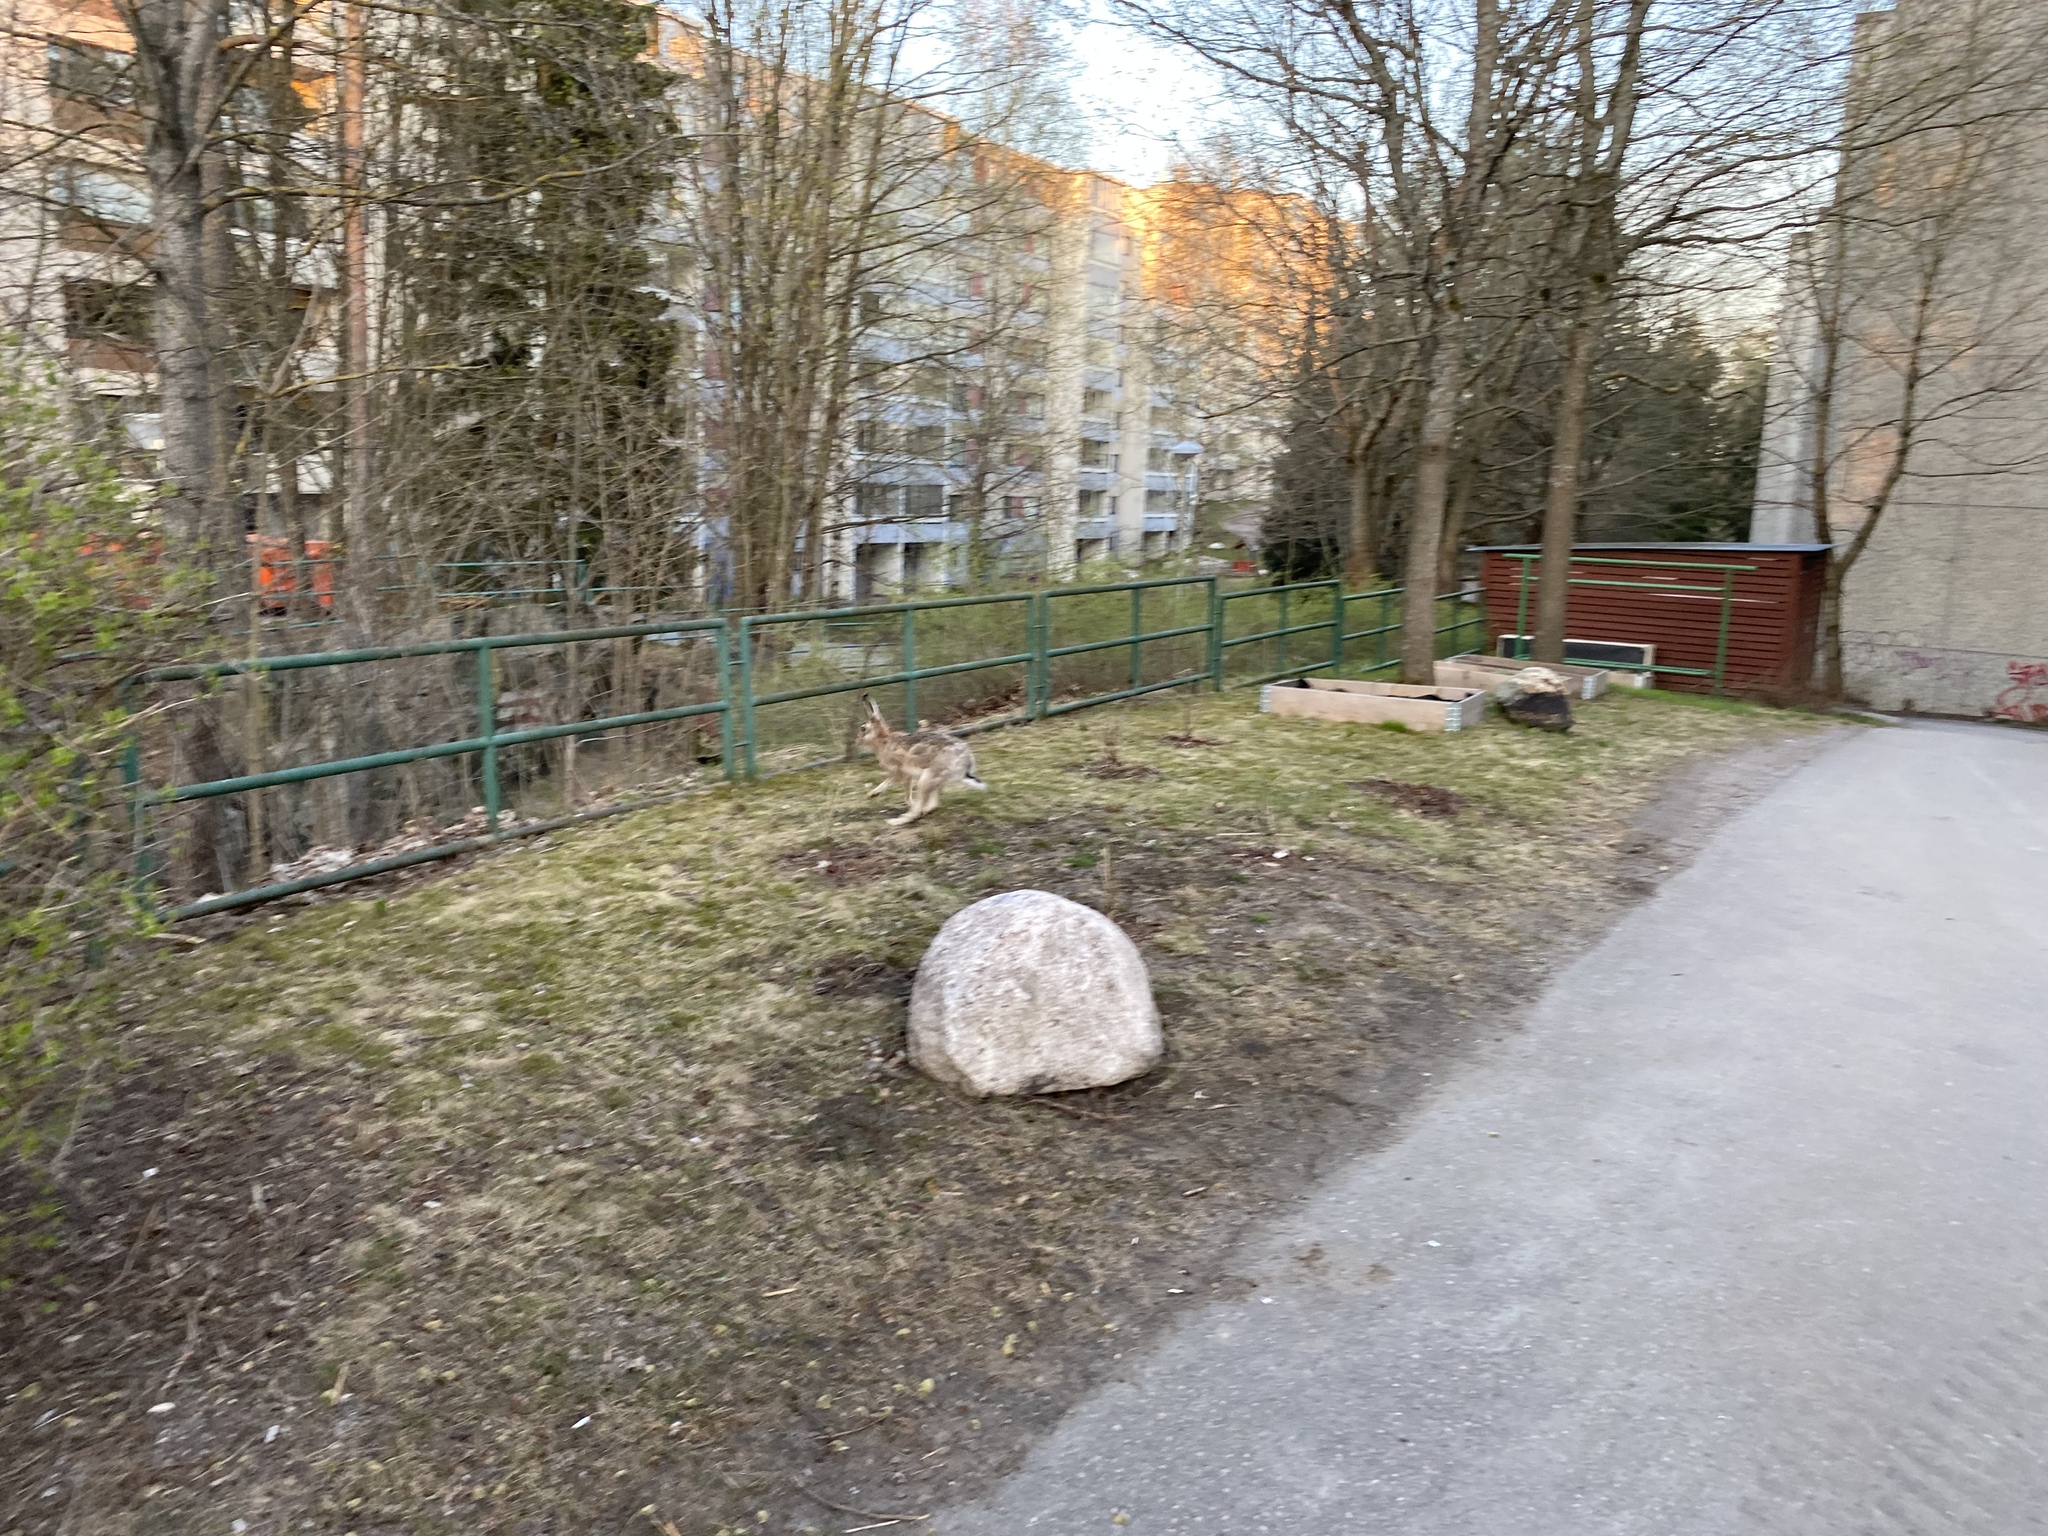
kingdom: Animalia
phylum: Chordata
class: Mammalia
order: Lagomorpha
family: Leporidae
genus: Lepus
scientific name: Lepus europaeus
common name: European hare
